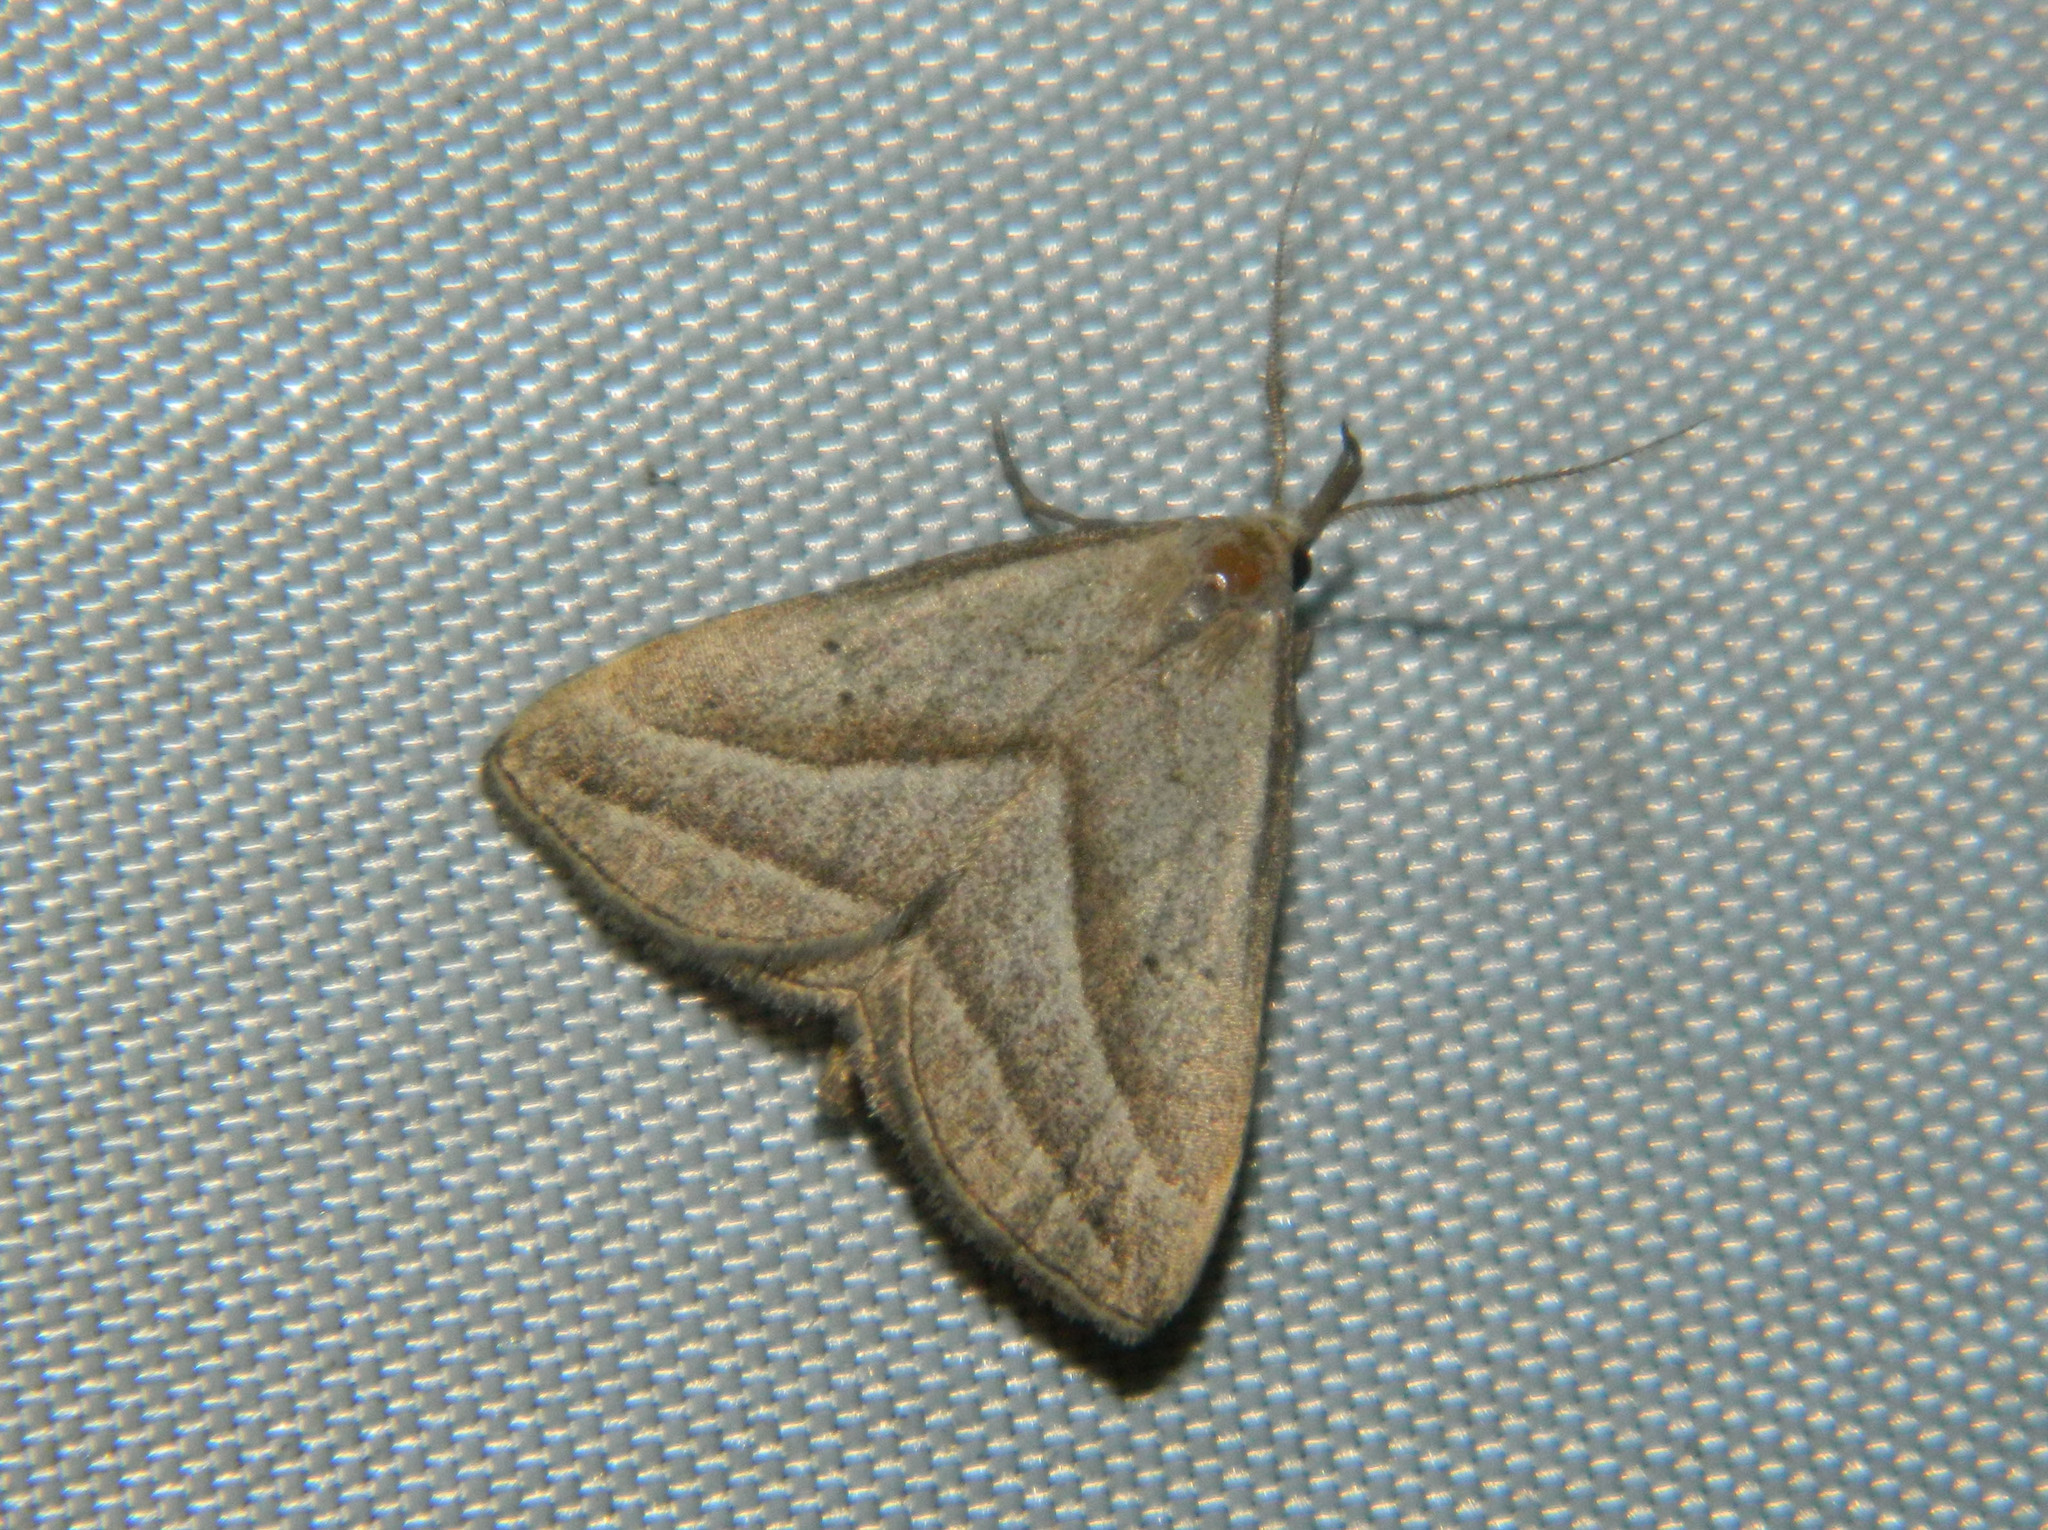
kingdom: Animalia
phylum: Arthropoda
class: Insecta
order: Lepidoptera
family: Erebidae
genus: Macrochilo
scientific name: Macrochilo absorptalis
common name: Slant-lined owlet
